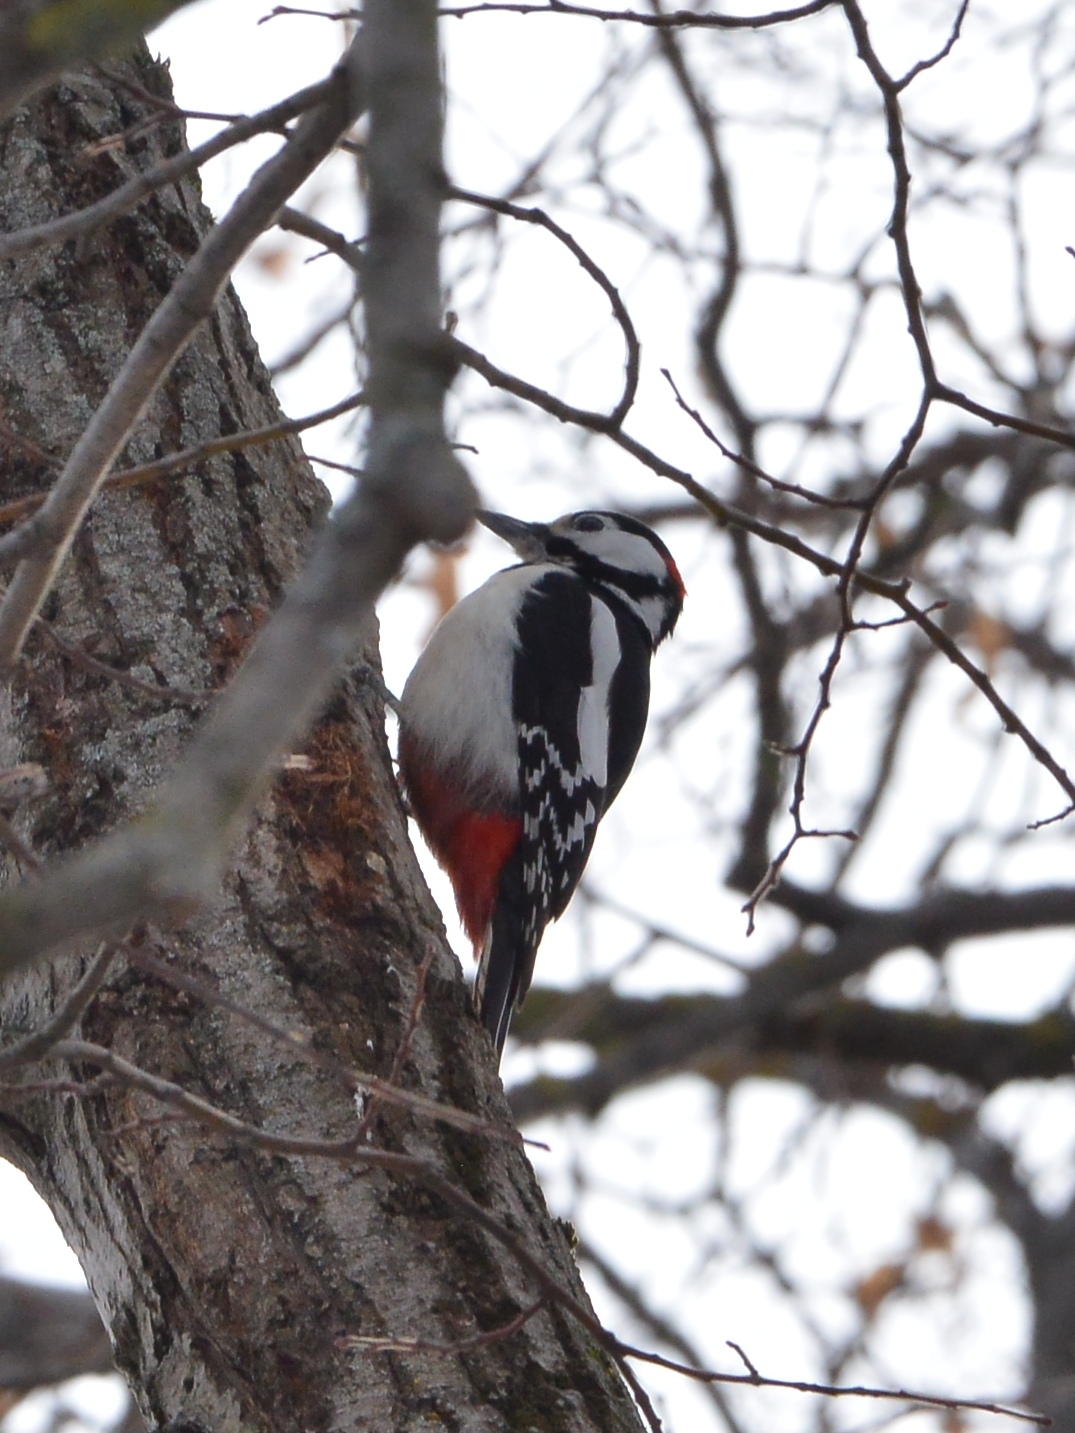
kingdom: Animalia
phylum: Chordata
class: Aves
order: Piciformes
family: Picidae
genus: Dendrocopos
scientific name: Dendrocopos major
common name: Great spotted woodpecker
